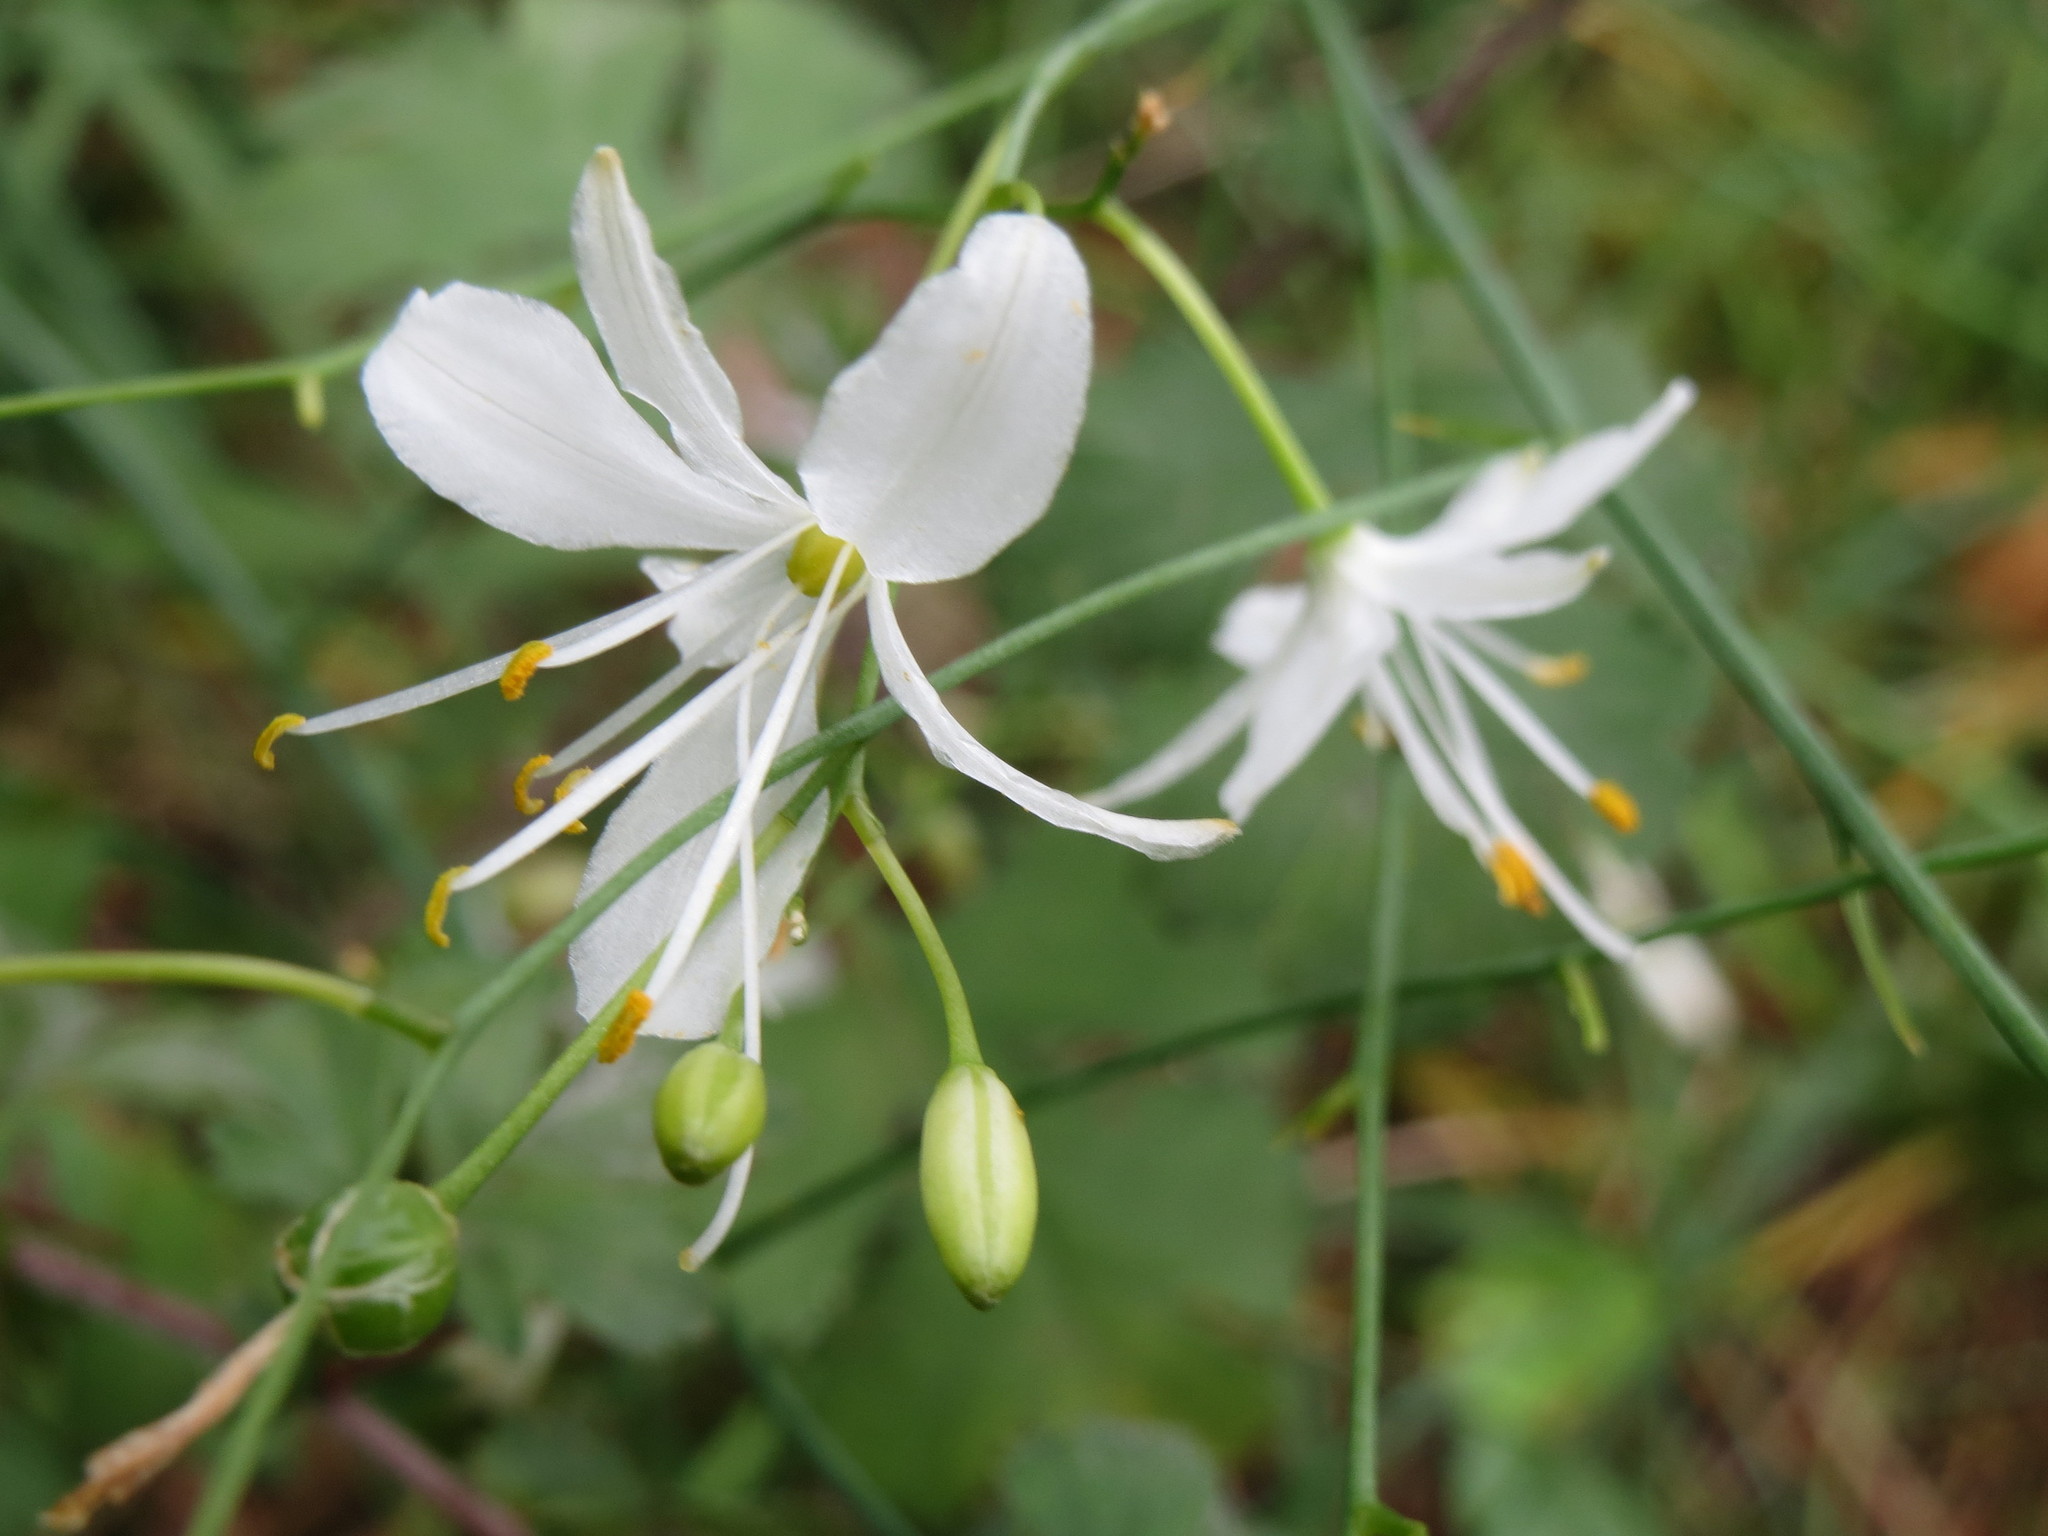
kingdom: Plantae
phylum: Tracheophyta
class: Liliopsida
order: Asparagales
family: Asparagaceae
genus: Anthericum
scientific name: Anthericum ramosum
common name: Branched st. bernard's-lily
